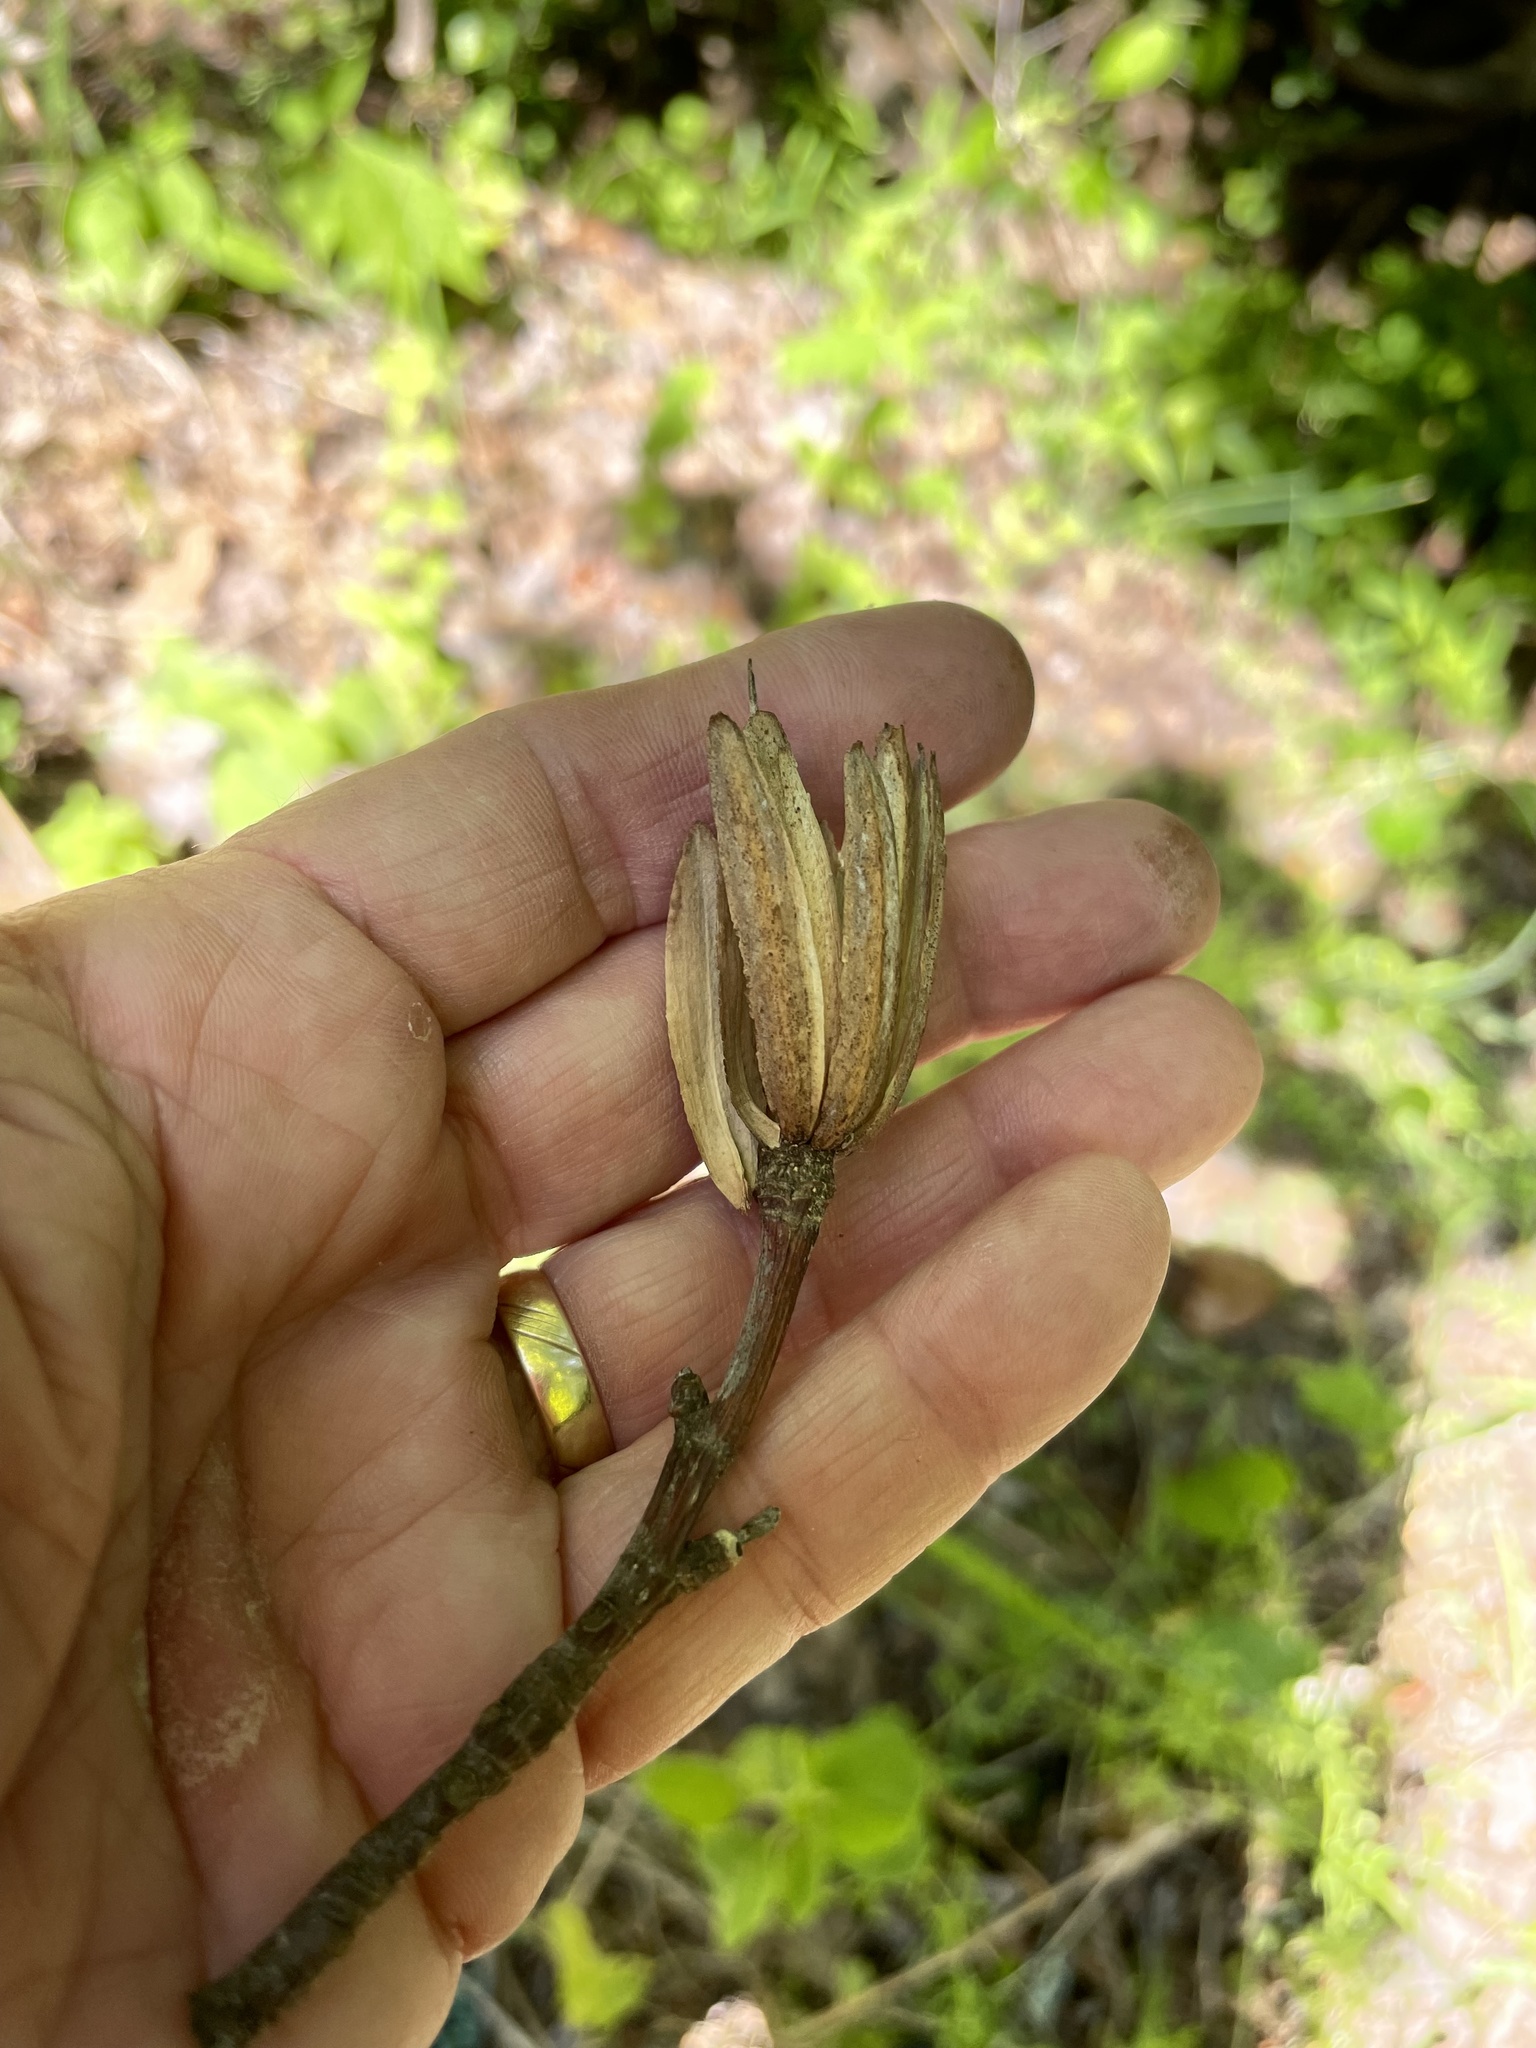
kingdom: Plantae
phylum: Tracheophyta
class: Magnoliopsida
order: Magnoliales
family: Magnoliaceae
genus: Liriodendron
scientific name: Liriodendron tulipifera
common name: Tulip tree
